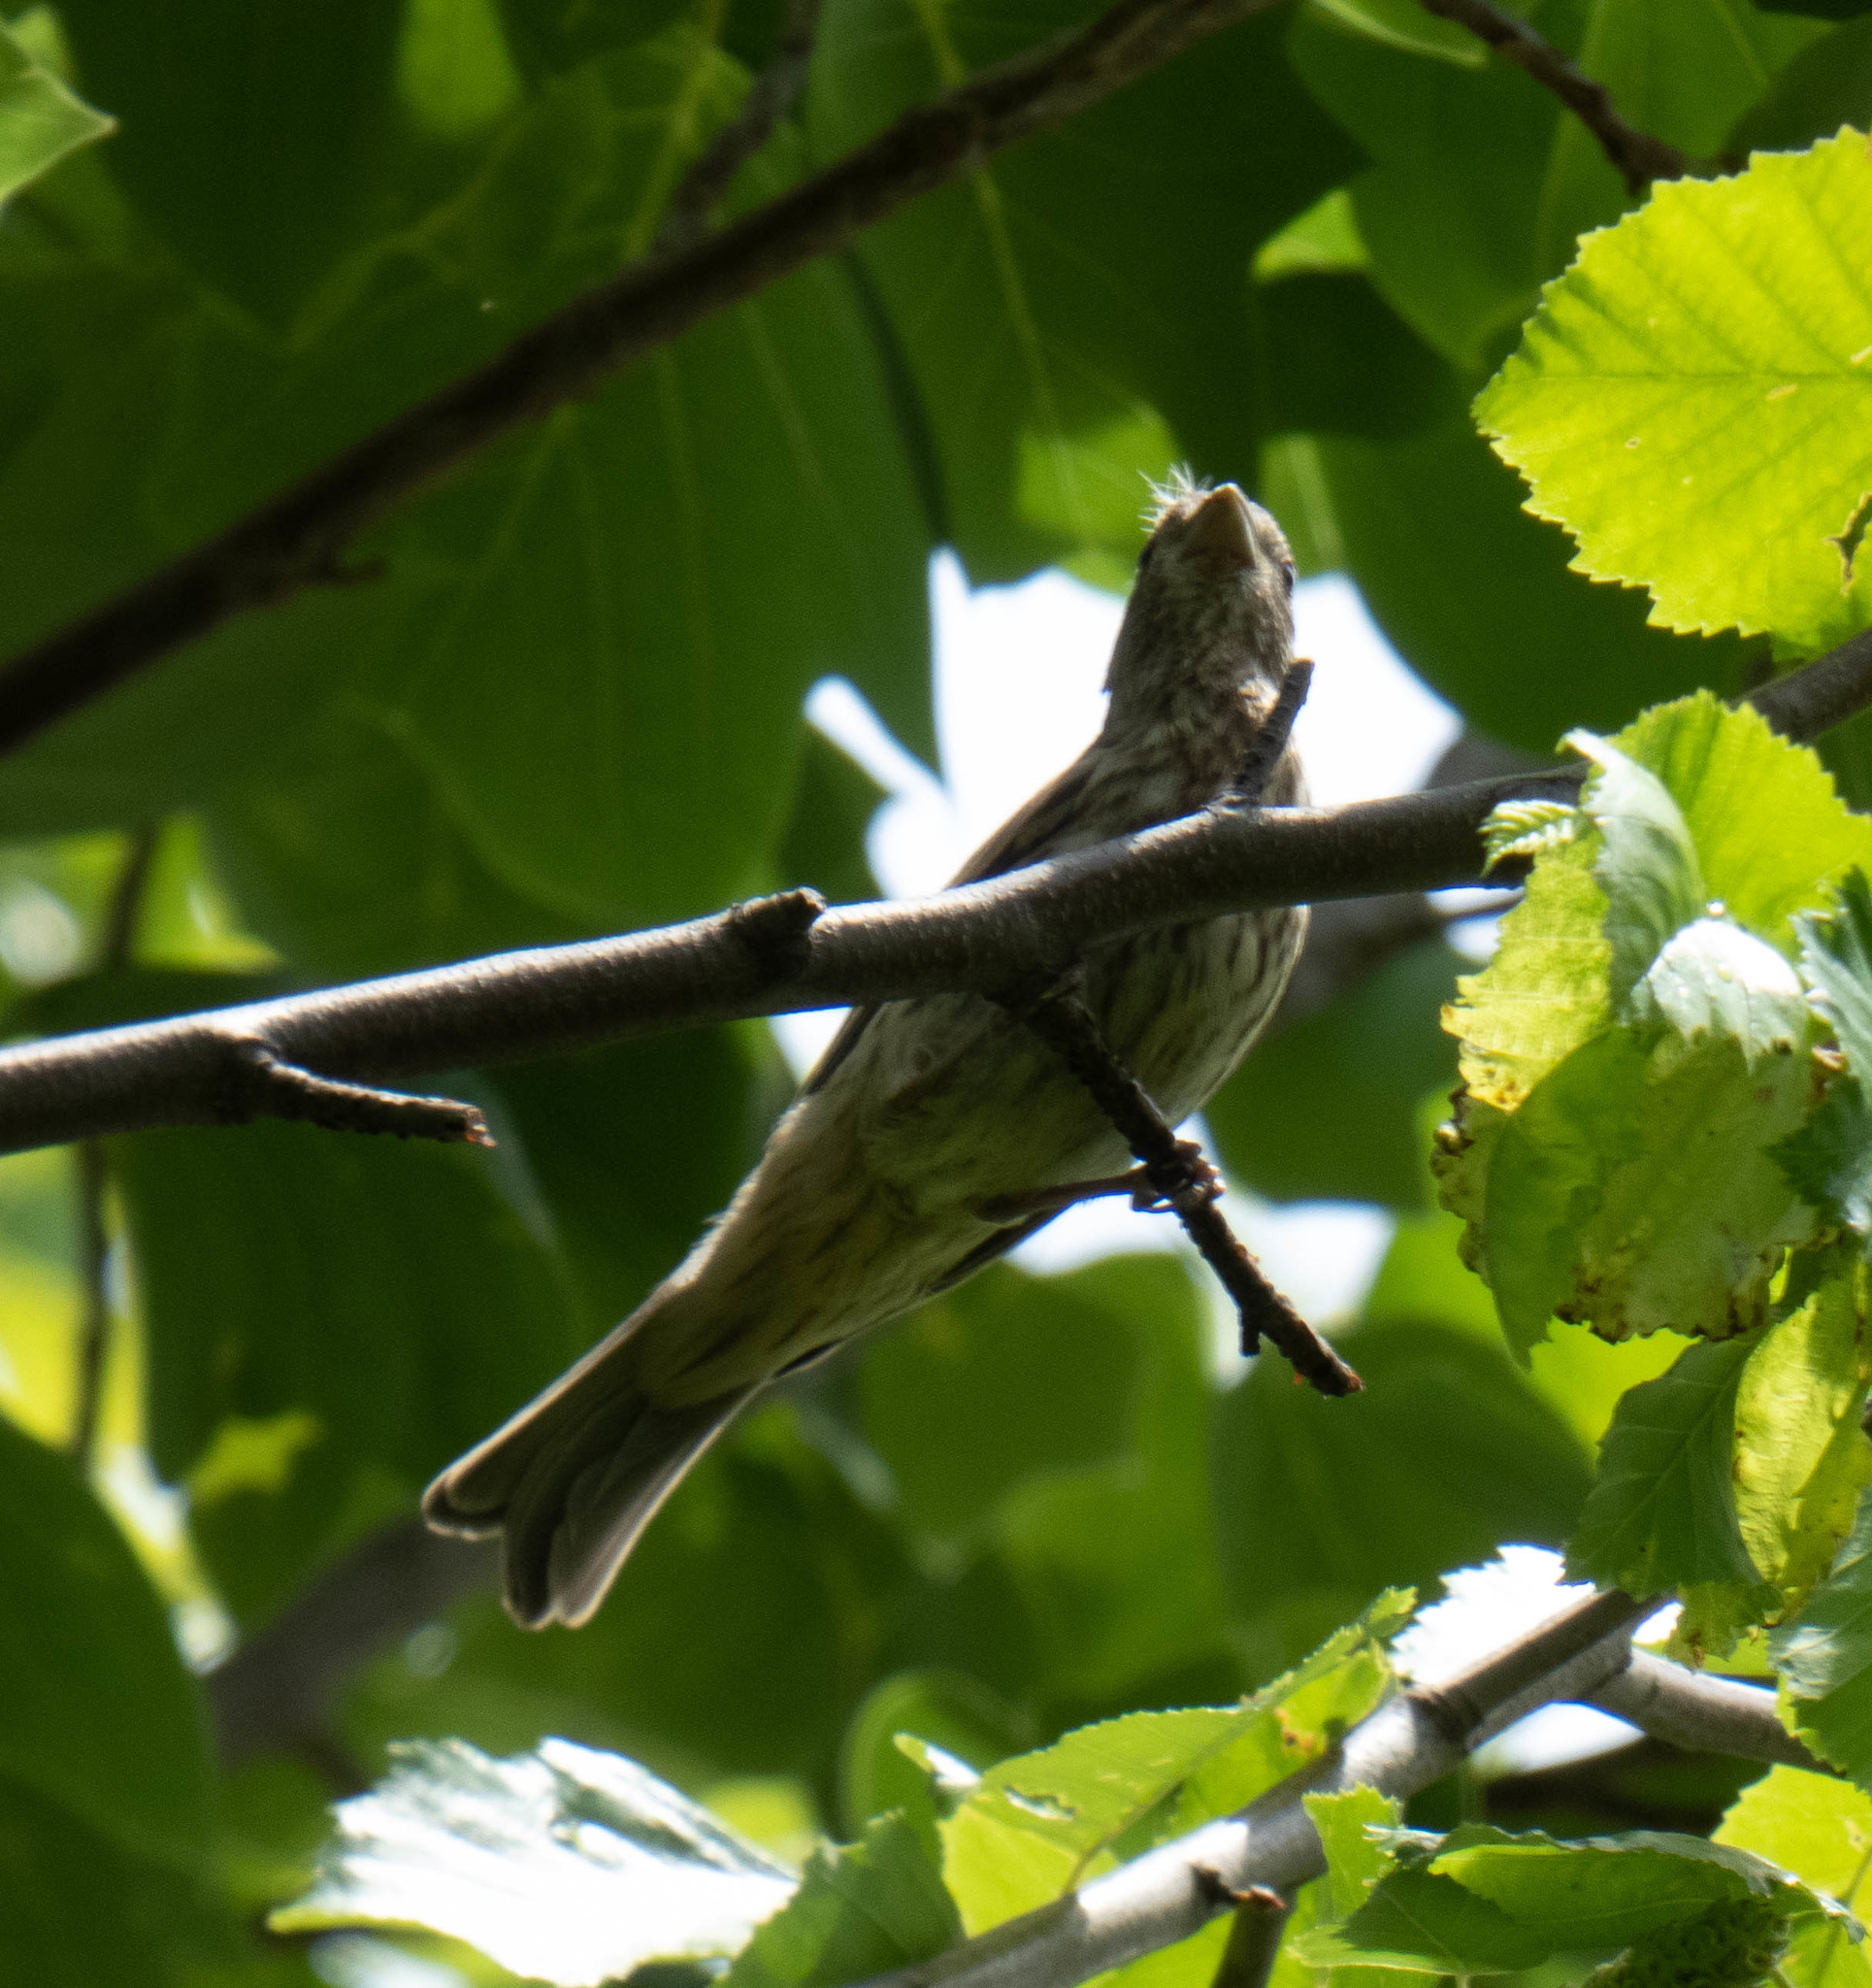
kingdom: Animalia
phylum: Chordata
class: Aves
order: Passeriformes
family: Fringillidae
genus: Haemorhous
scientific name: Haemorhous mexicanus
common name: House finch
